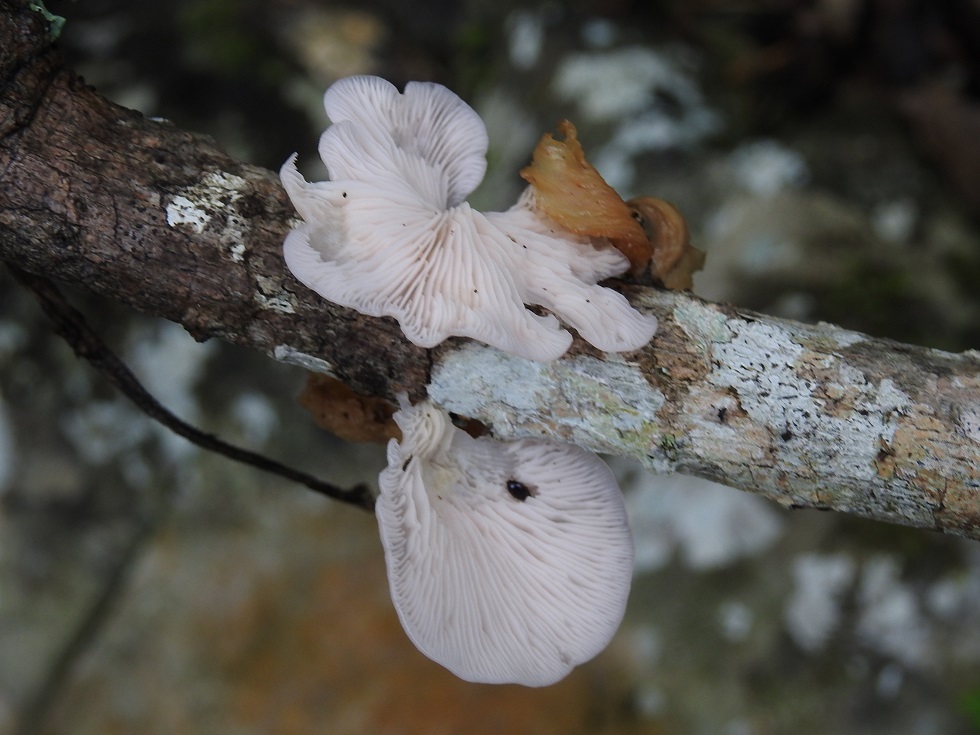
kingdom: Fungi
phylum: Basidiomycota
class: Agaricomycetes
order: Agaricales
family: Pleurotaceae
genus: Pleurotus
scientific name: Pleurotus djamor
